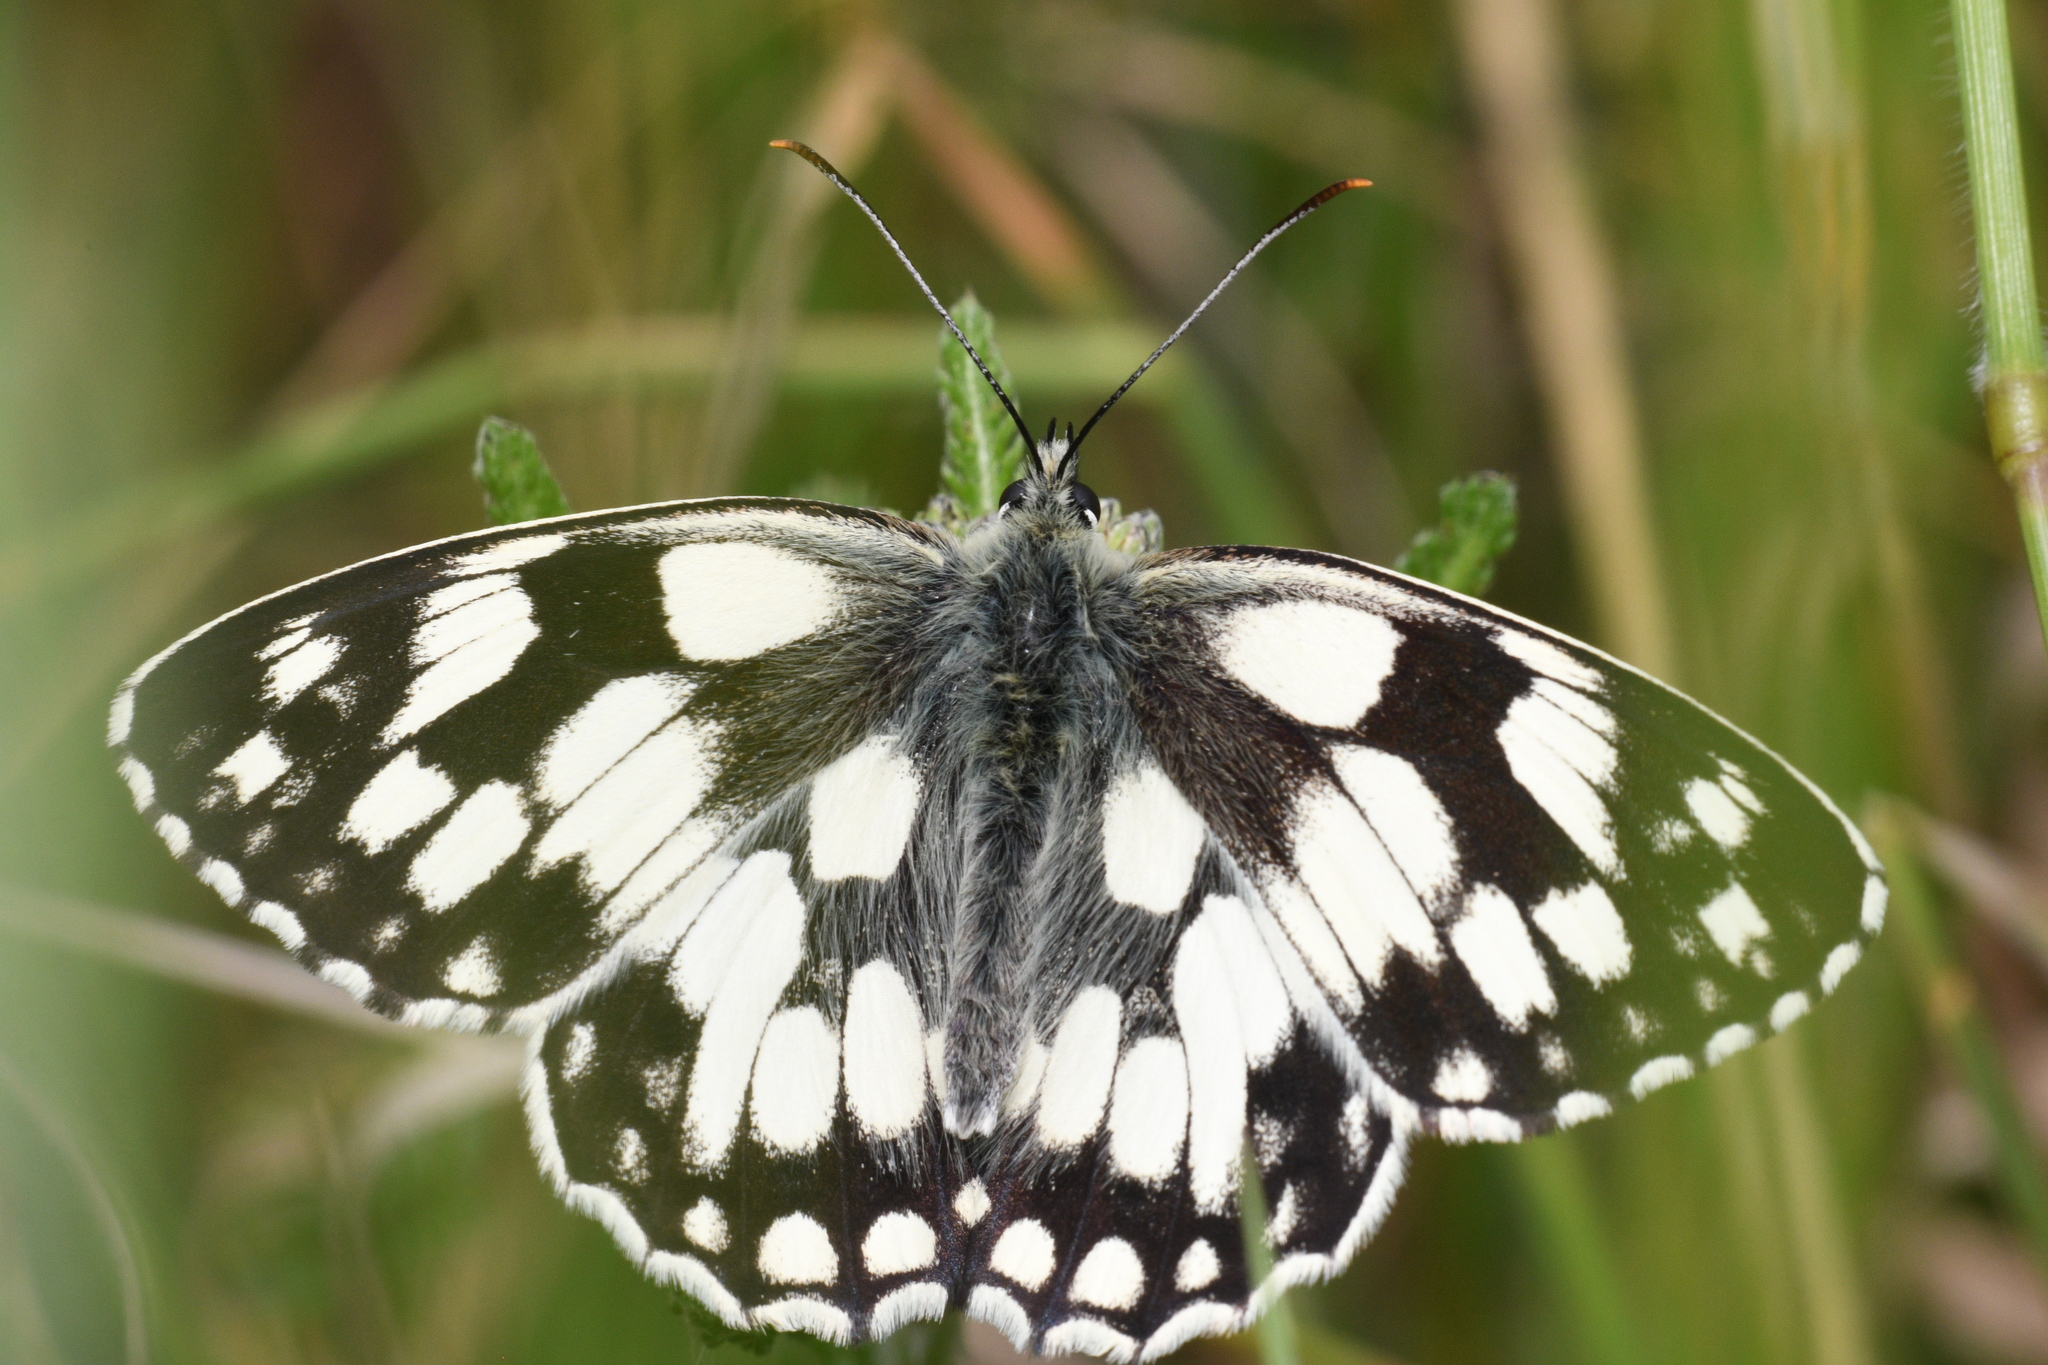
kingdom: Animalia
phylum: Arthropoda
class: Insecta
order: Lepidoptera
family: Nymphalidae
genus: Melanargia
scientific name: Melanargia galathea
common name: Marbled white
